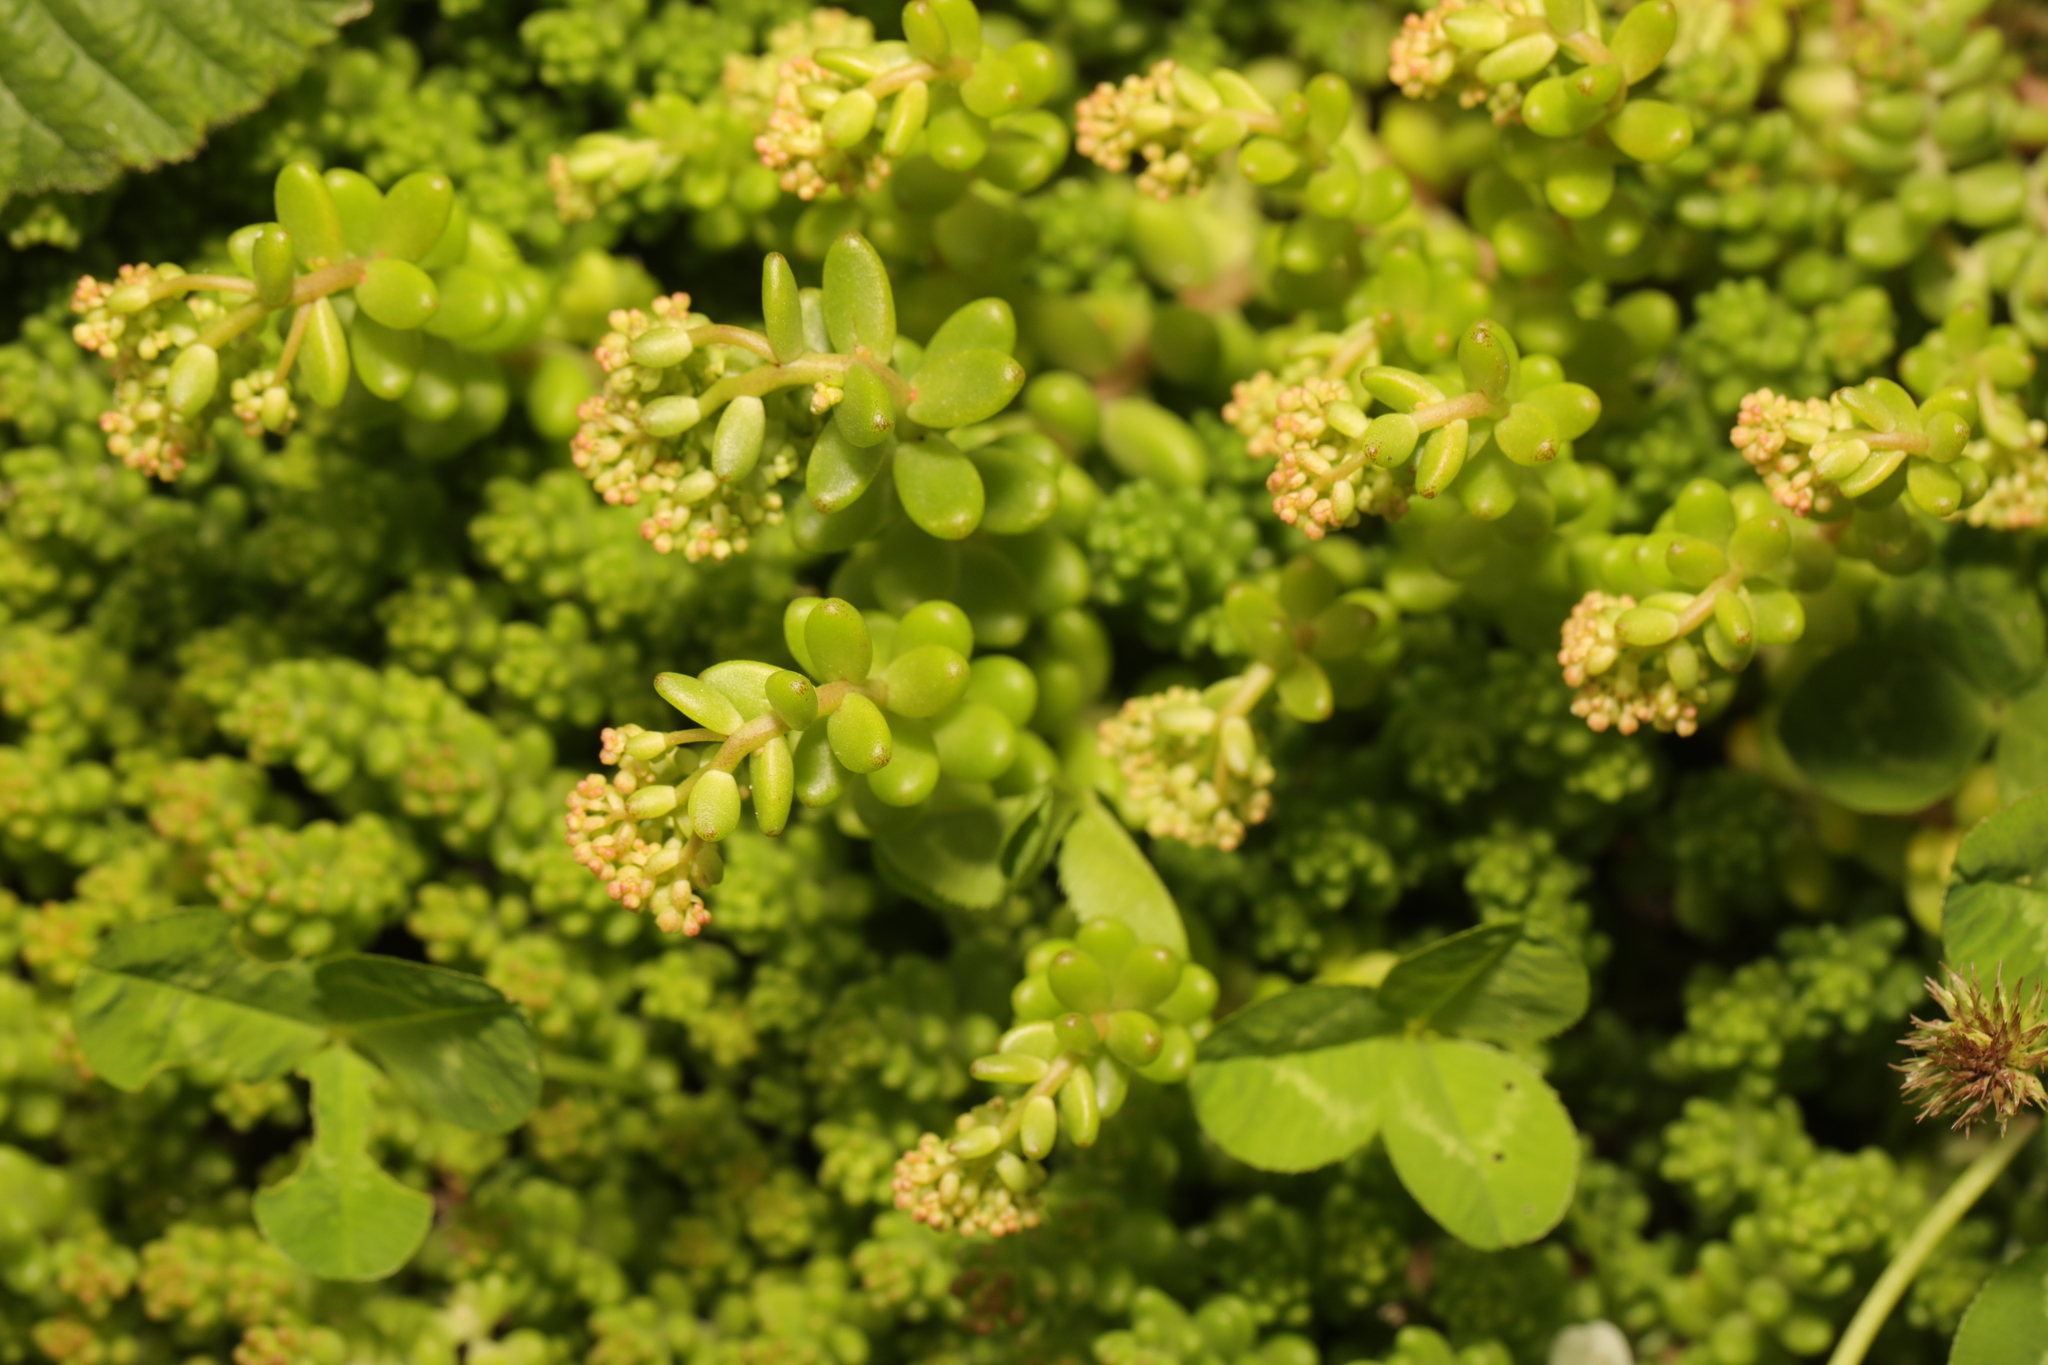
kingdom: Plantae
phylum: Tracheophyta
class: Magnoliopsida
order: Saxifragales
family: Crassulaceae
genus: Sedum
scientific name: Sedum album
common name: White stonecrop
